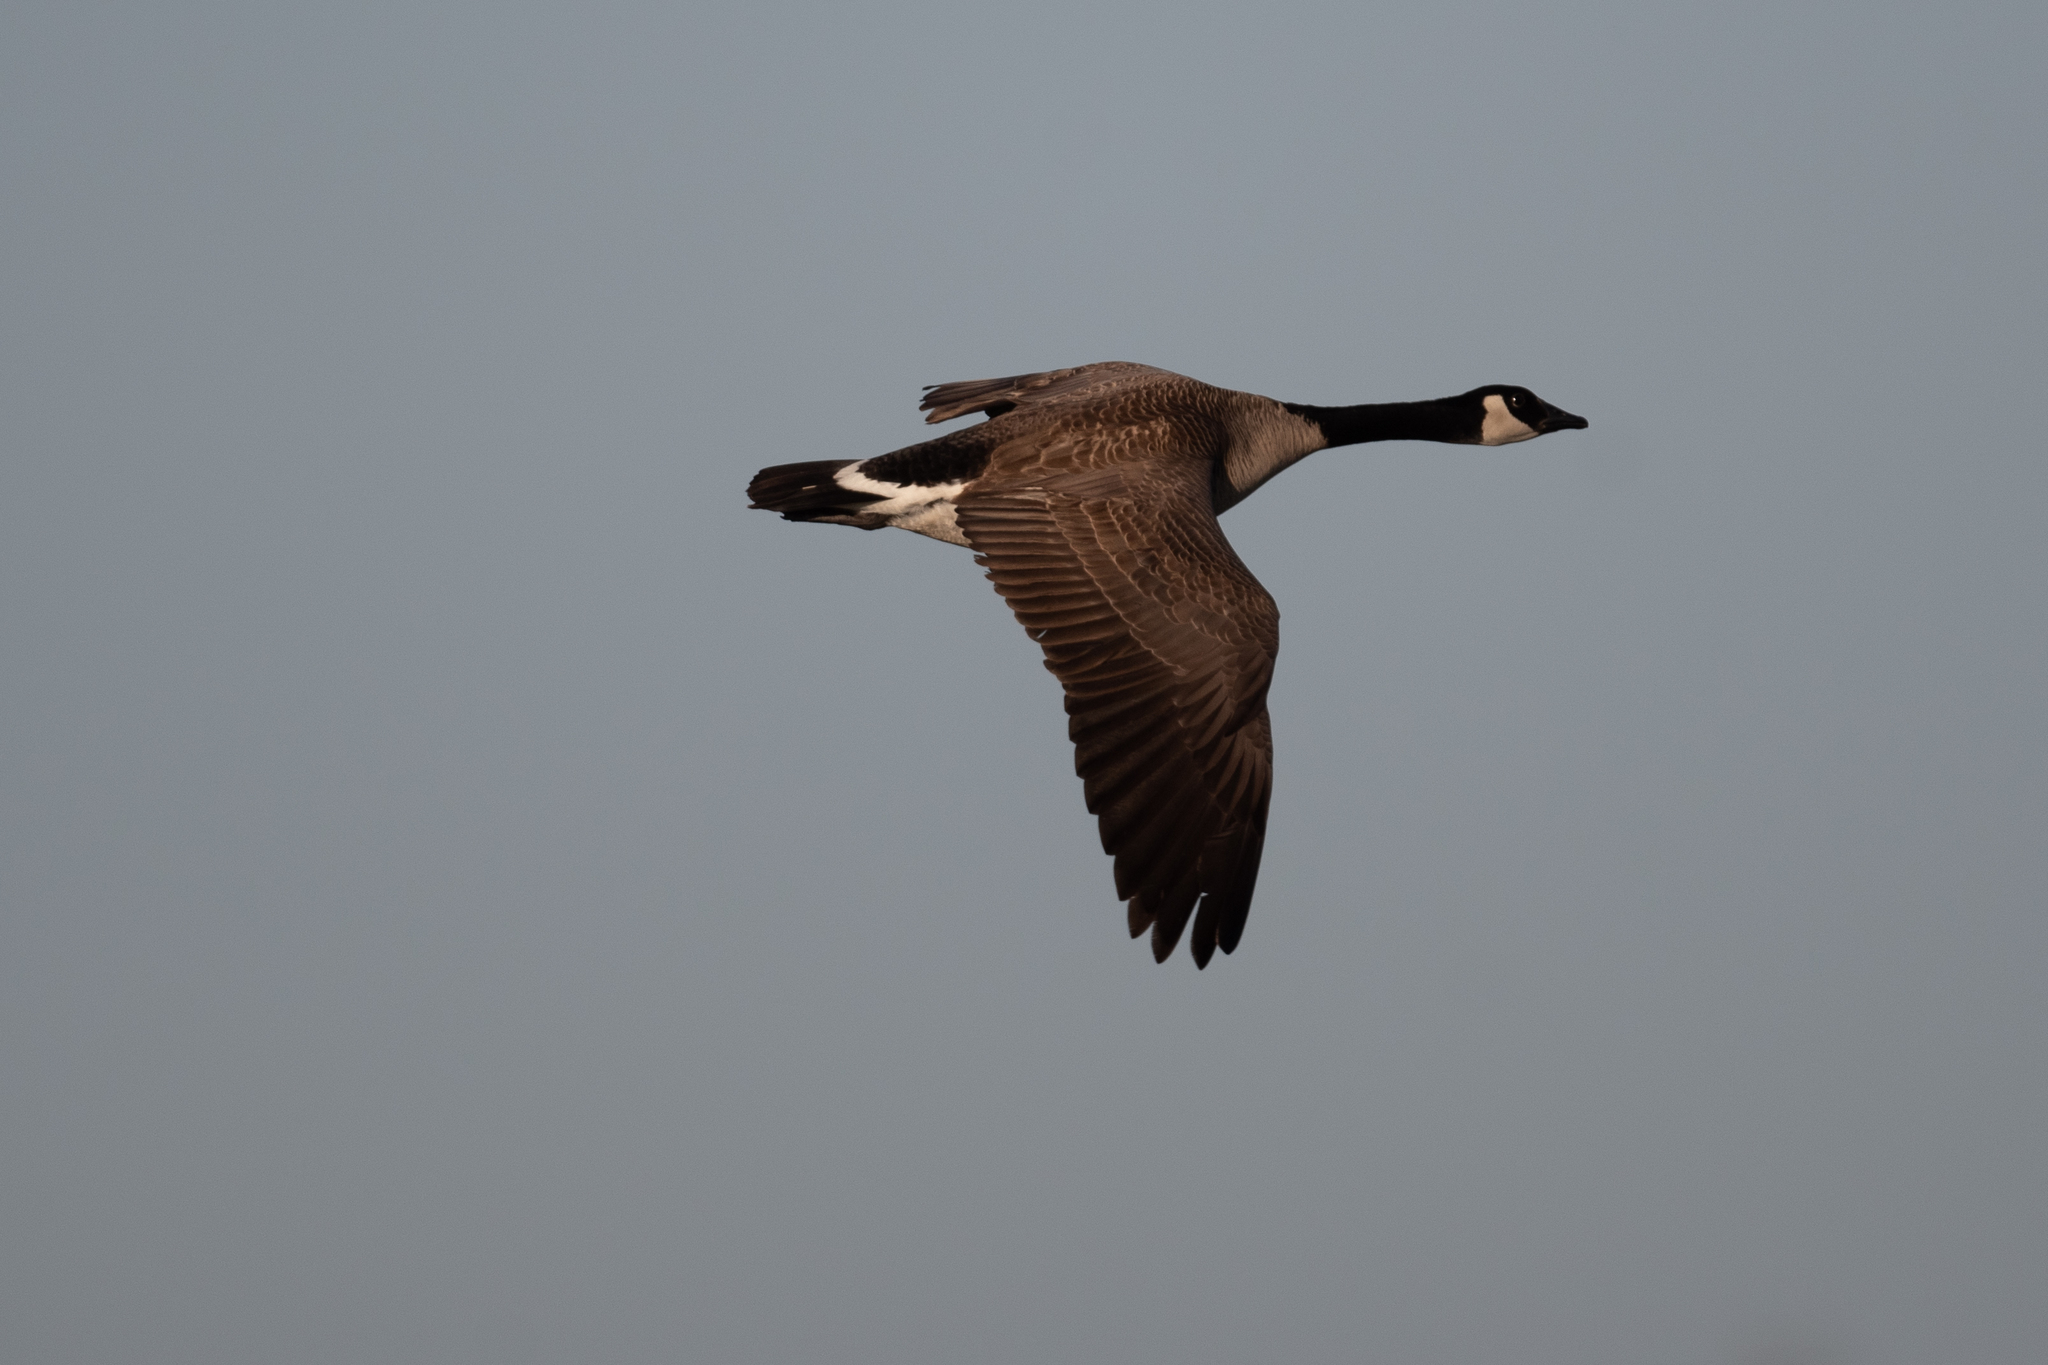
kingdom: Animalia
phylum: Chordata
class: Aves
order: Anseriformes
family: Anatidae
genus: Branta
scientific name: Branta canadensis
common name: Canada goose
